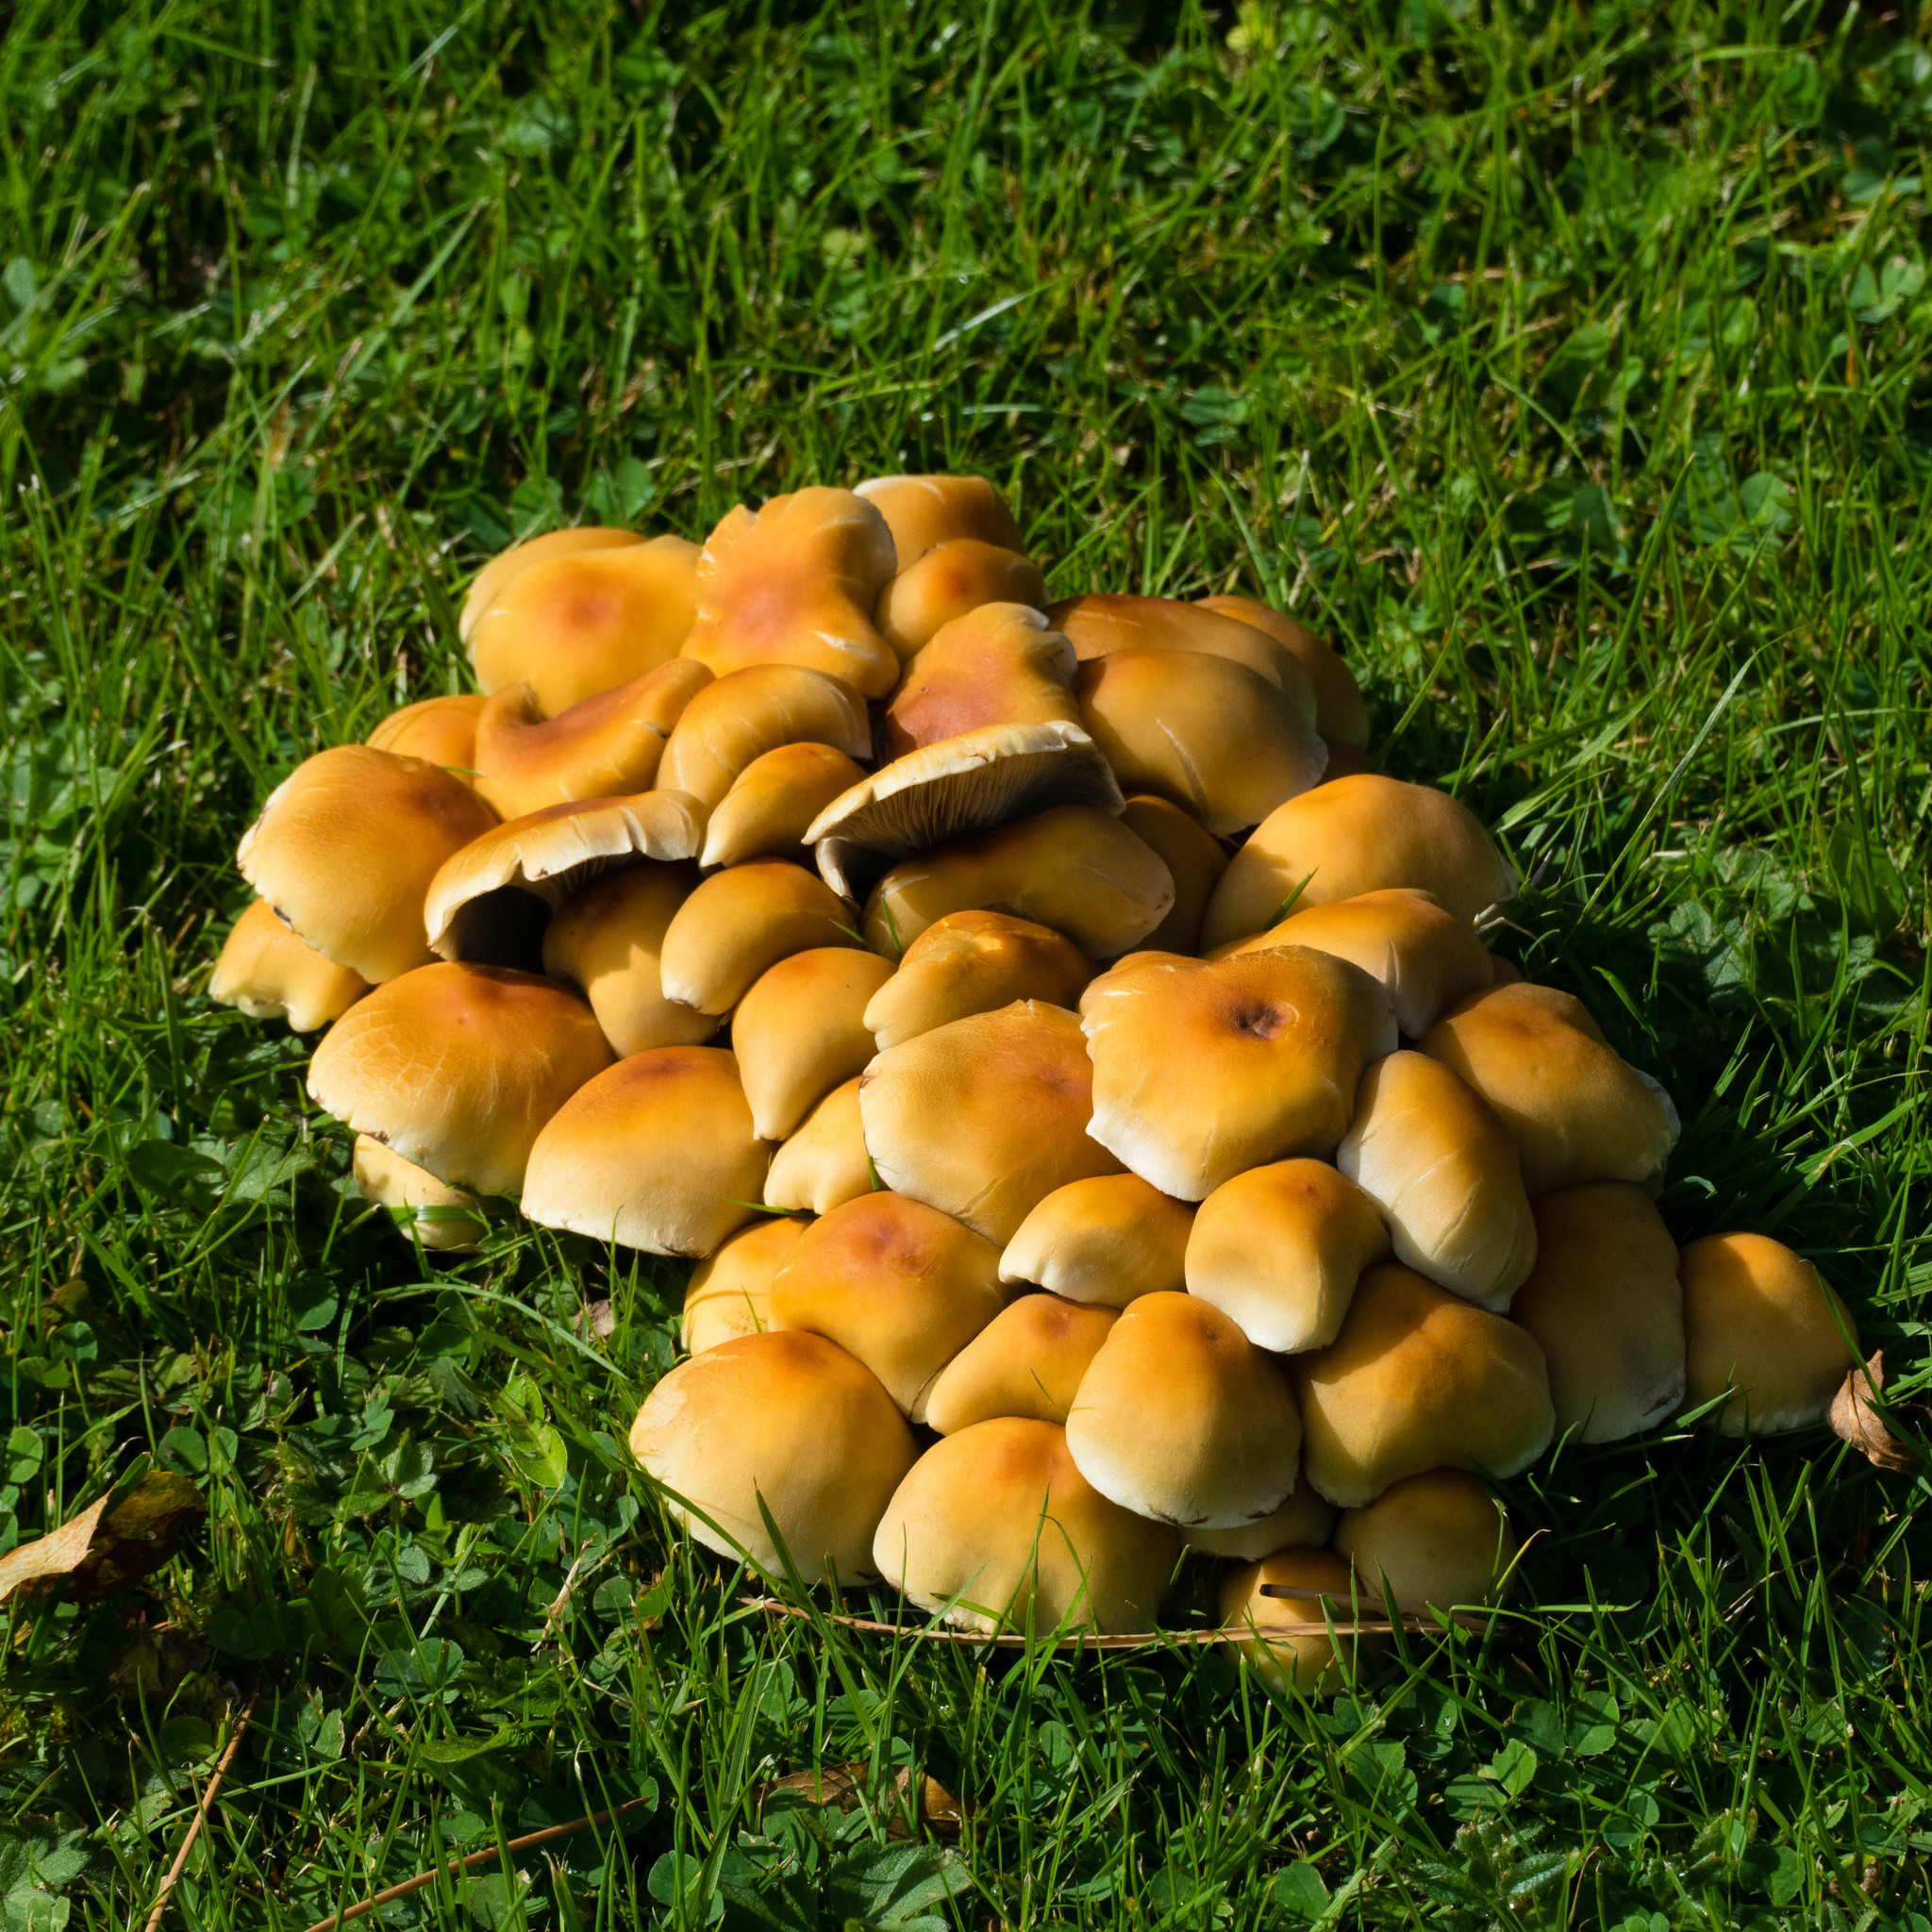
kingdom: Fungi
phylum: Basidiomycota
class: Agaricomycetes
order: Agaricales
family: Strophariaceae
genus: Hypholoma
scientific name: Hypholoma fasciculare
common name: Sulphur tuft
